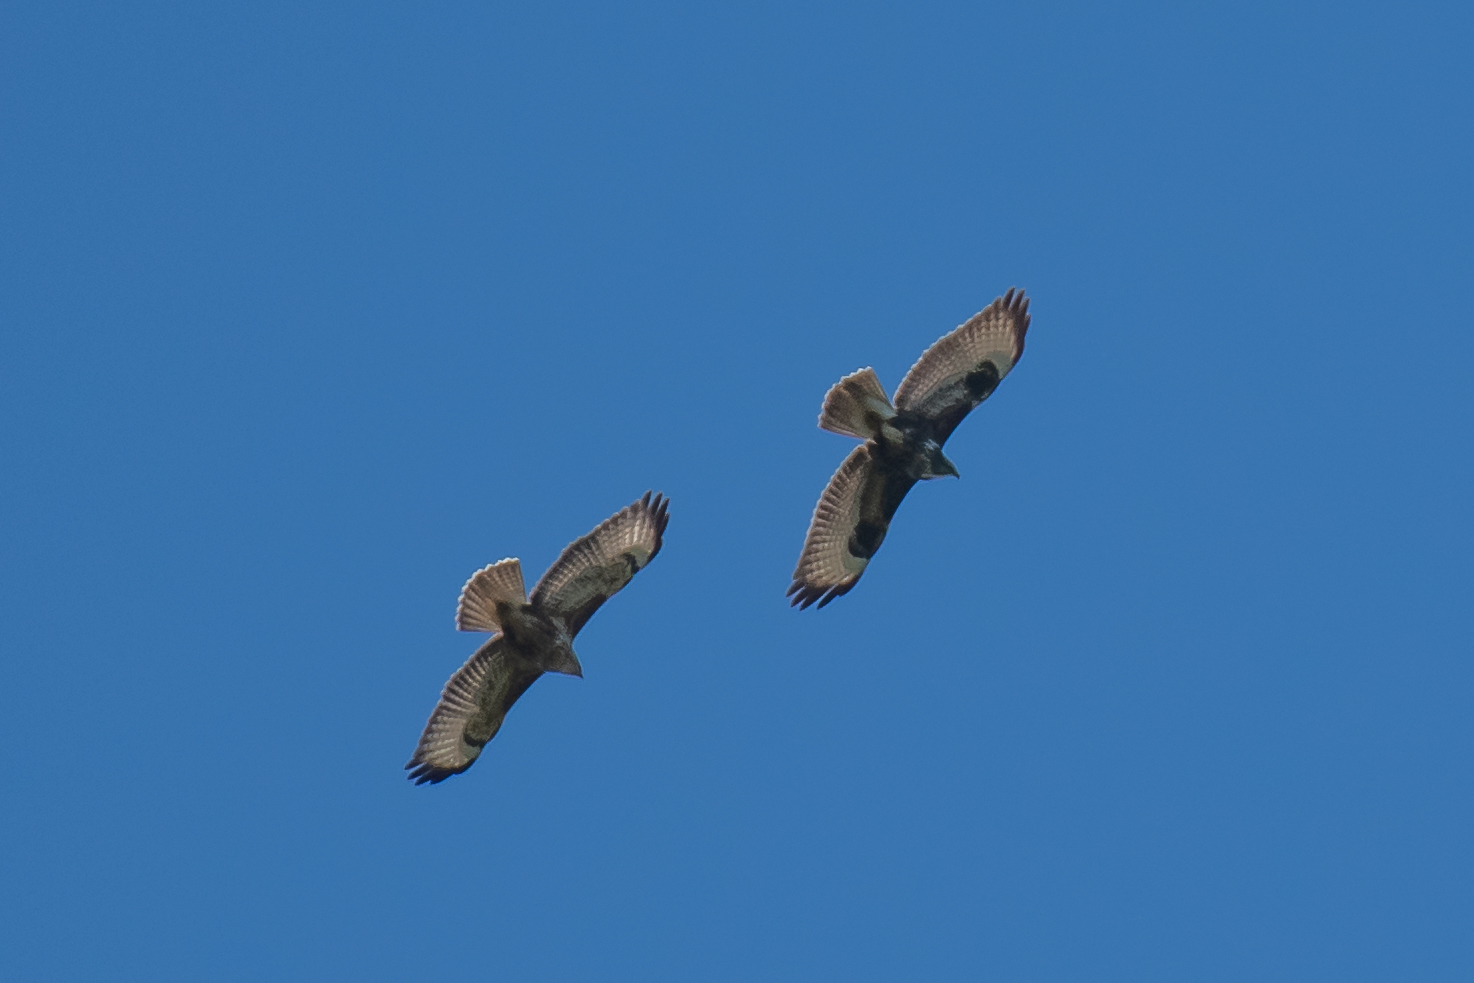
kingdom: Animalia
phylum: Chordata
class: Aves
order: Accipitriformes
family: Accipitridae
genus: Buteo
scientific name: Buteo buteo
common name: Common buzzard
